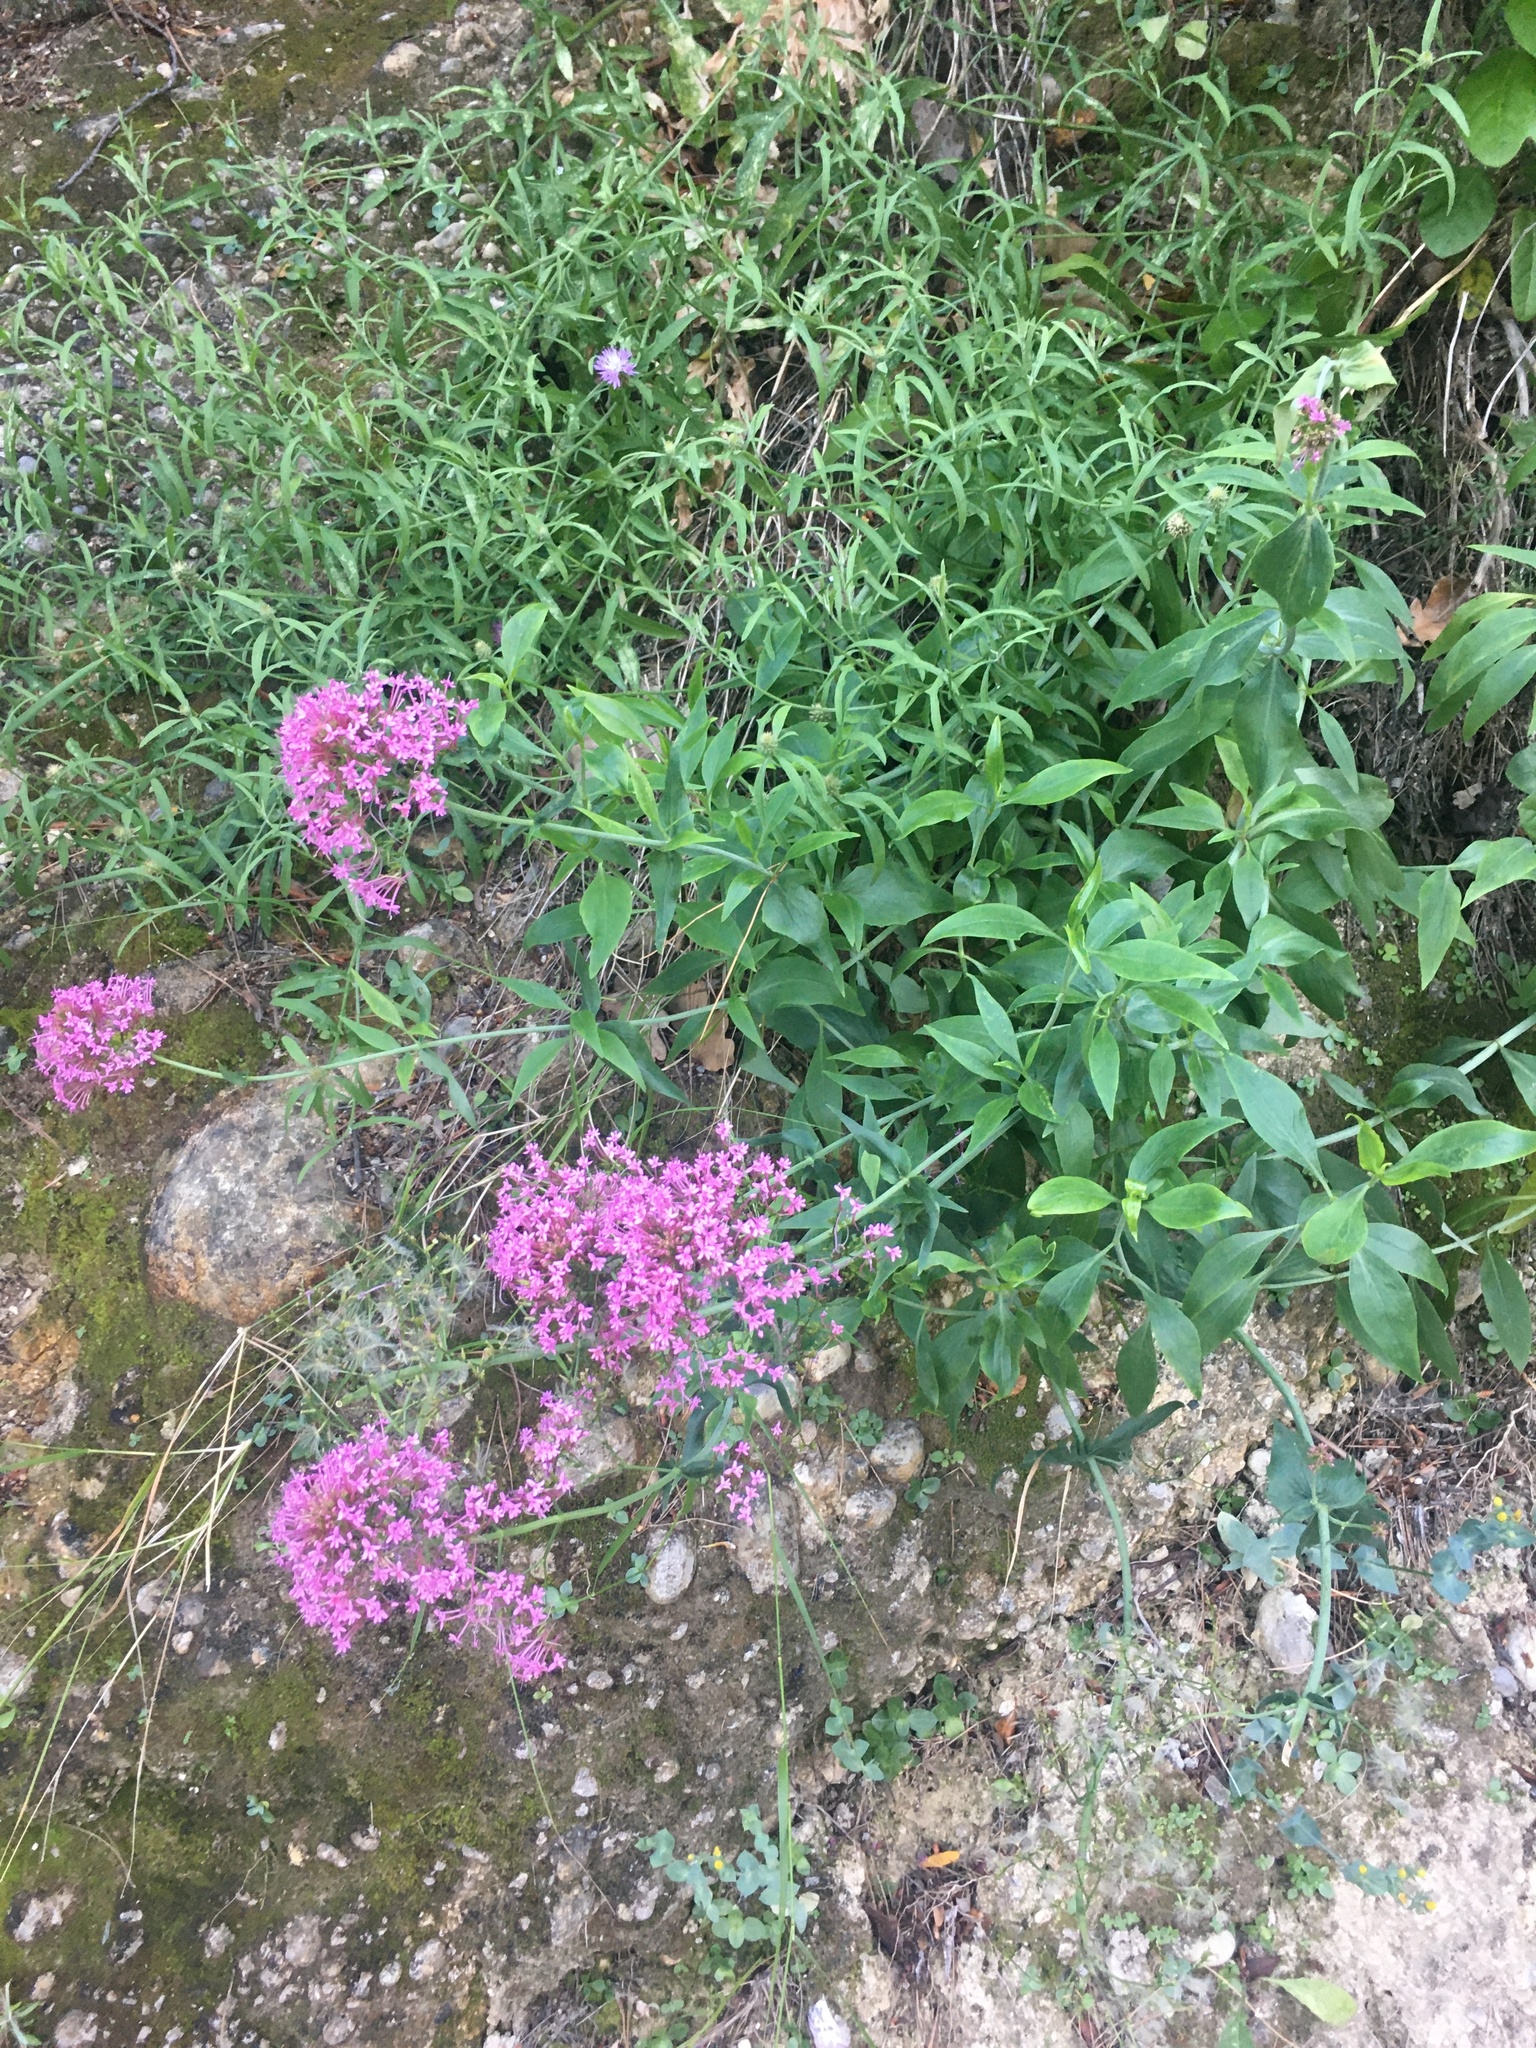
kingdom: Plantae
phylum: Tracheophyta
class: Magnoliopsida
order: Dipsacales
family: Caprifoliaceae
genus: Centranthus
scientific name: Centranthus ruber
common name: Red valerian
